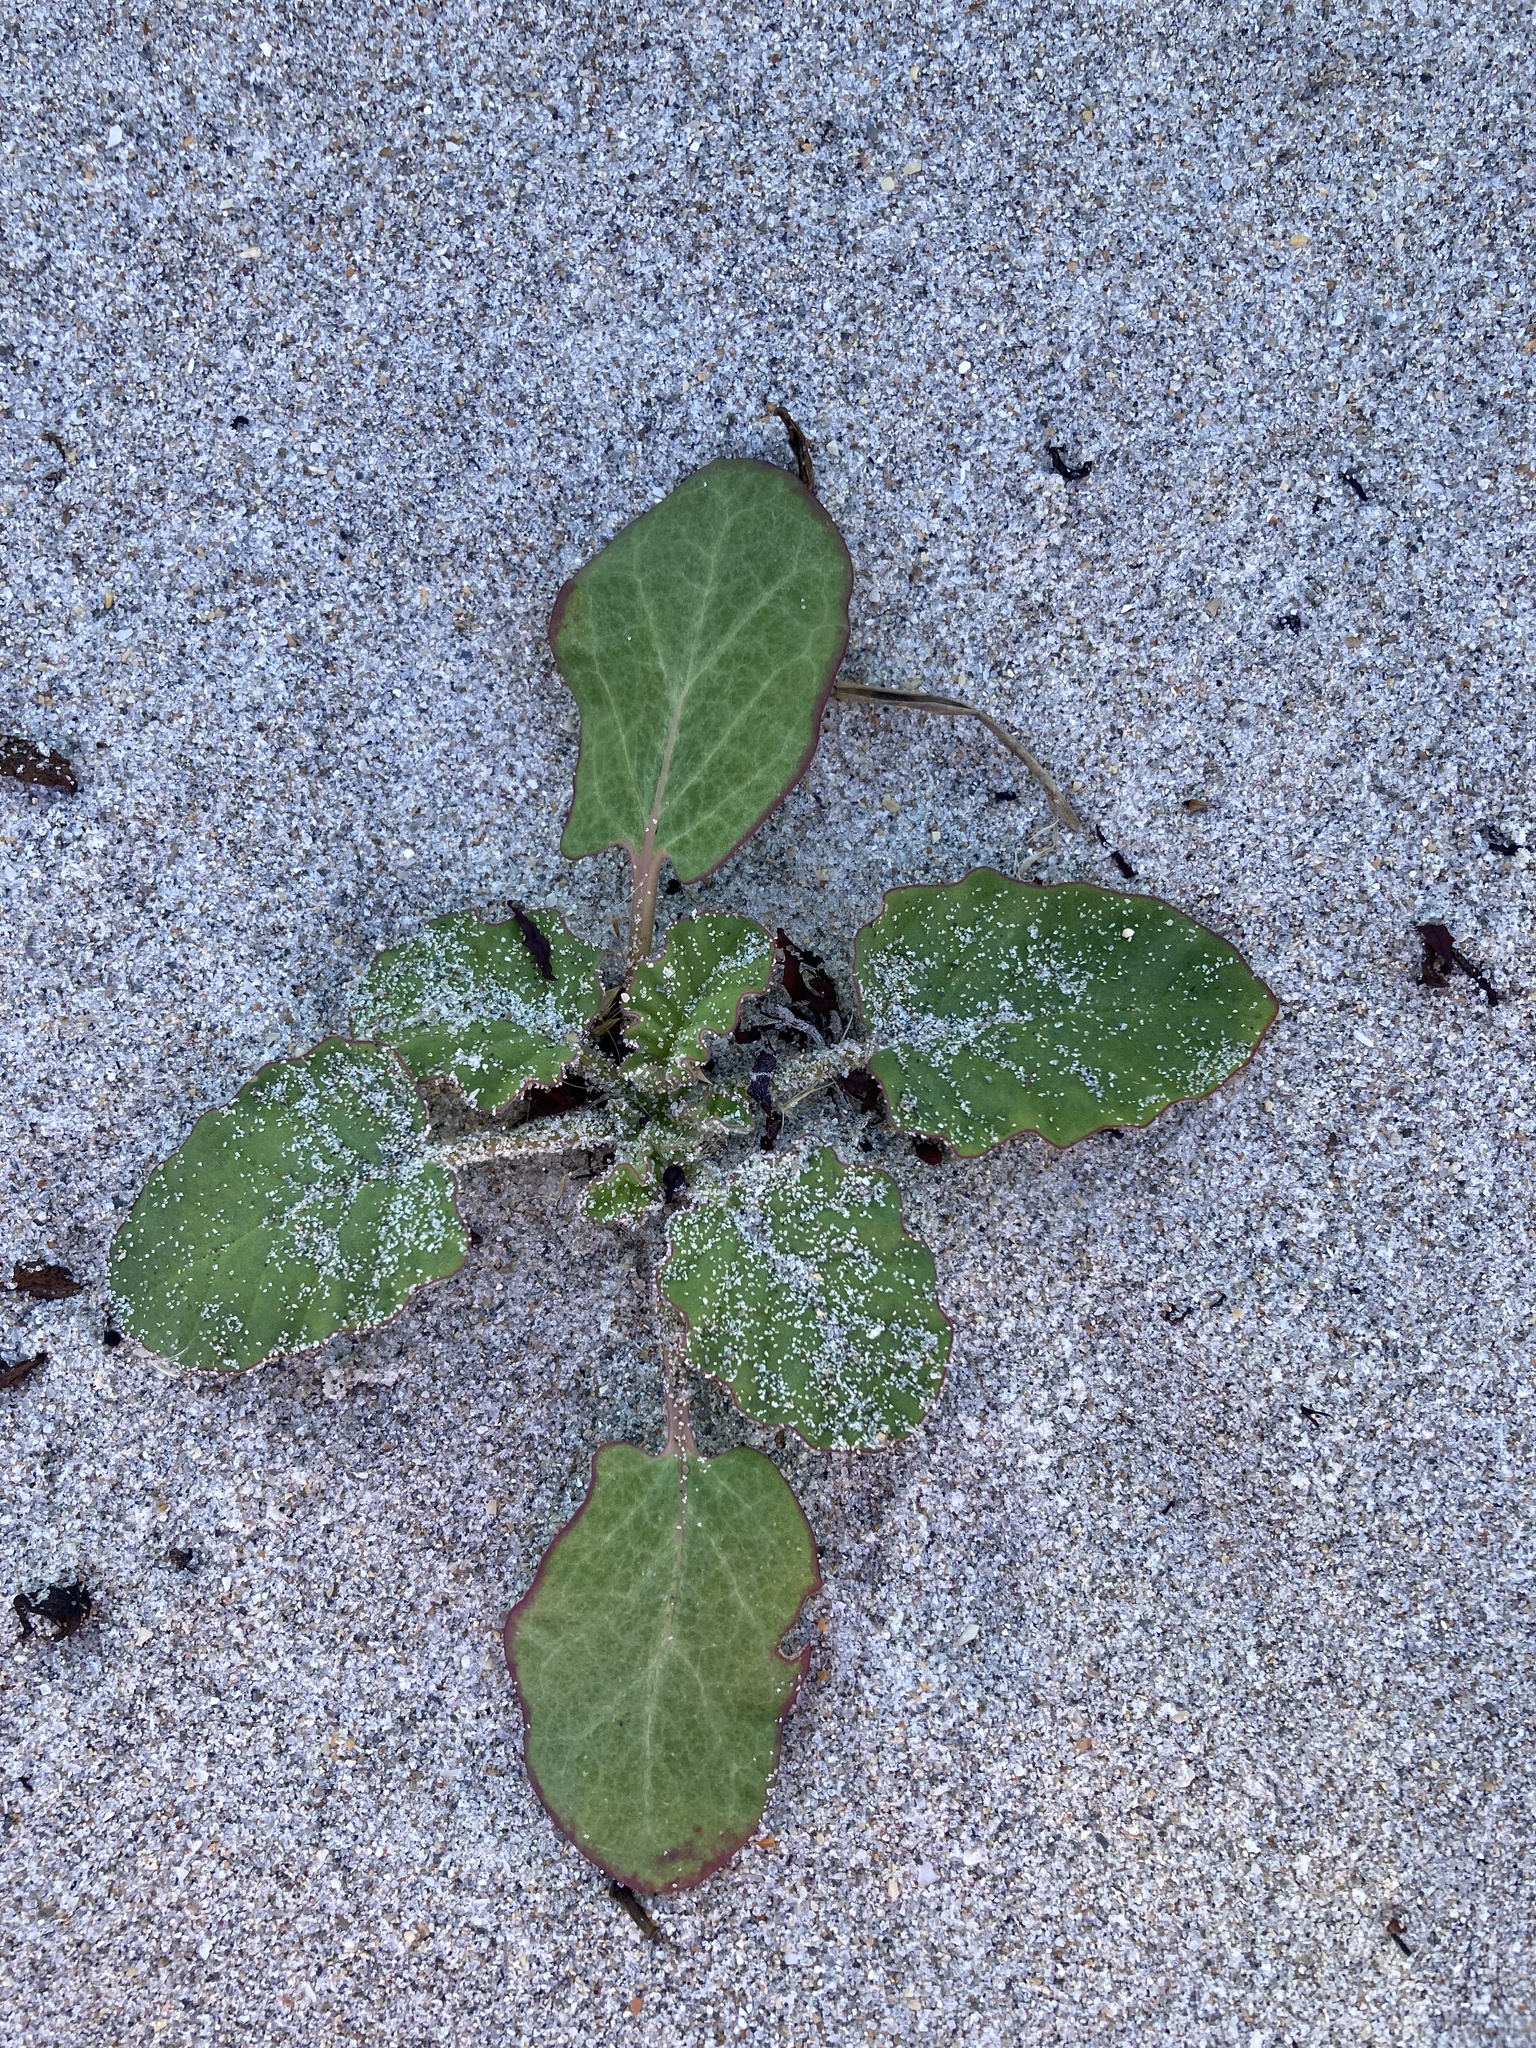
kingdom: Plantae
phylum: Tracheophyta
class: Magnoliopsida
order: Caryophyllales
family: Nyctaginaceae
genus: Okenia
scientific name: Okenia hypogaea
